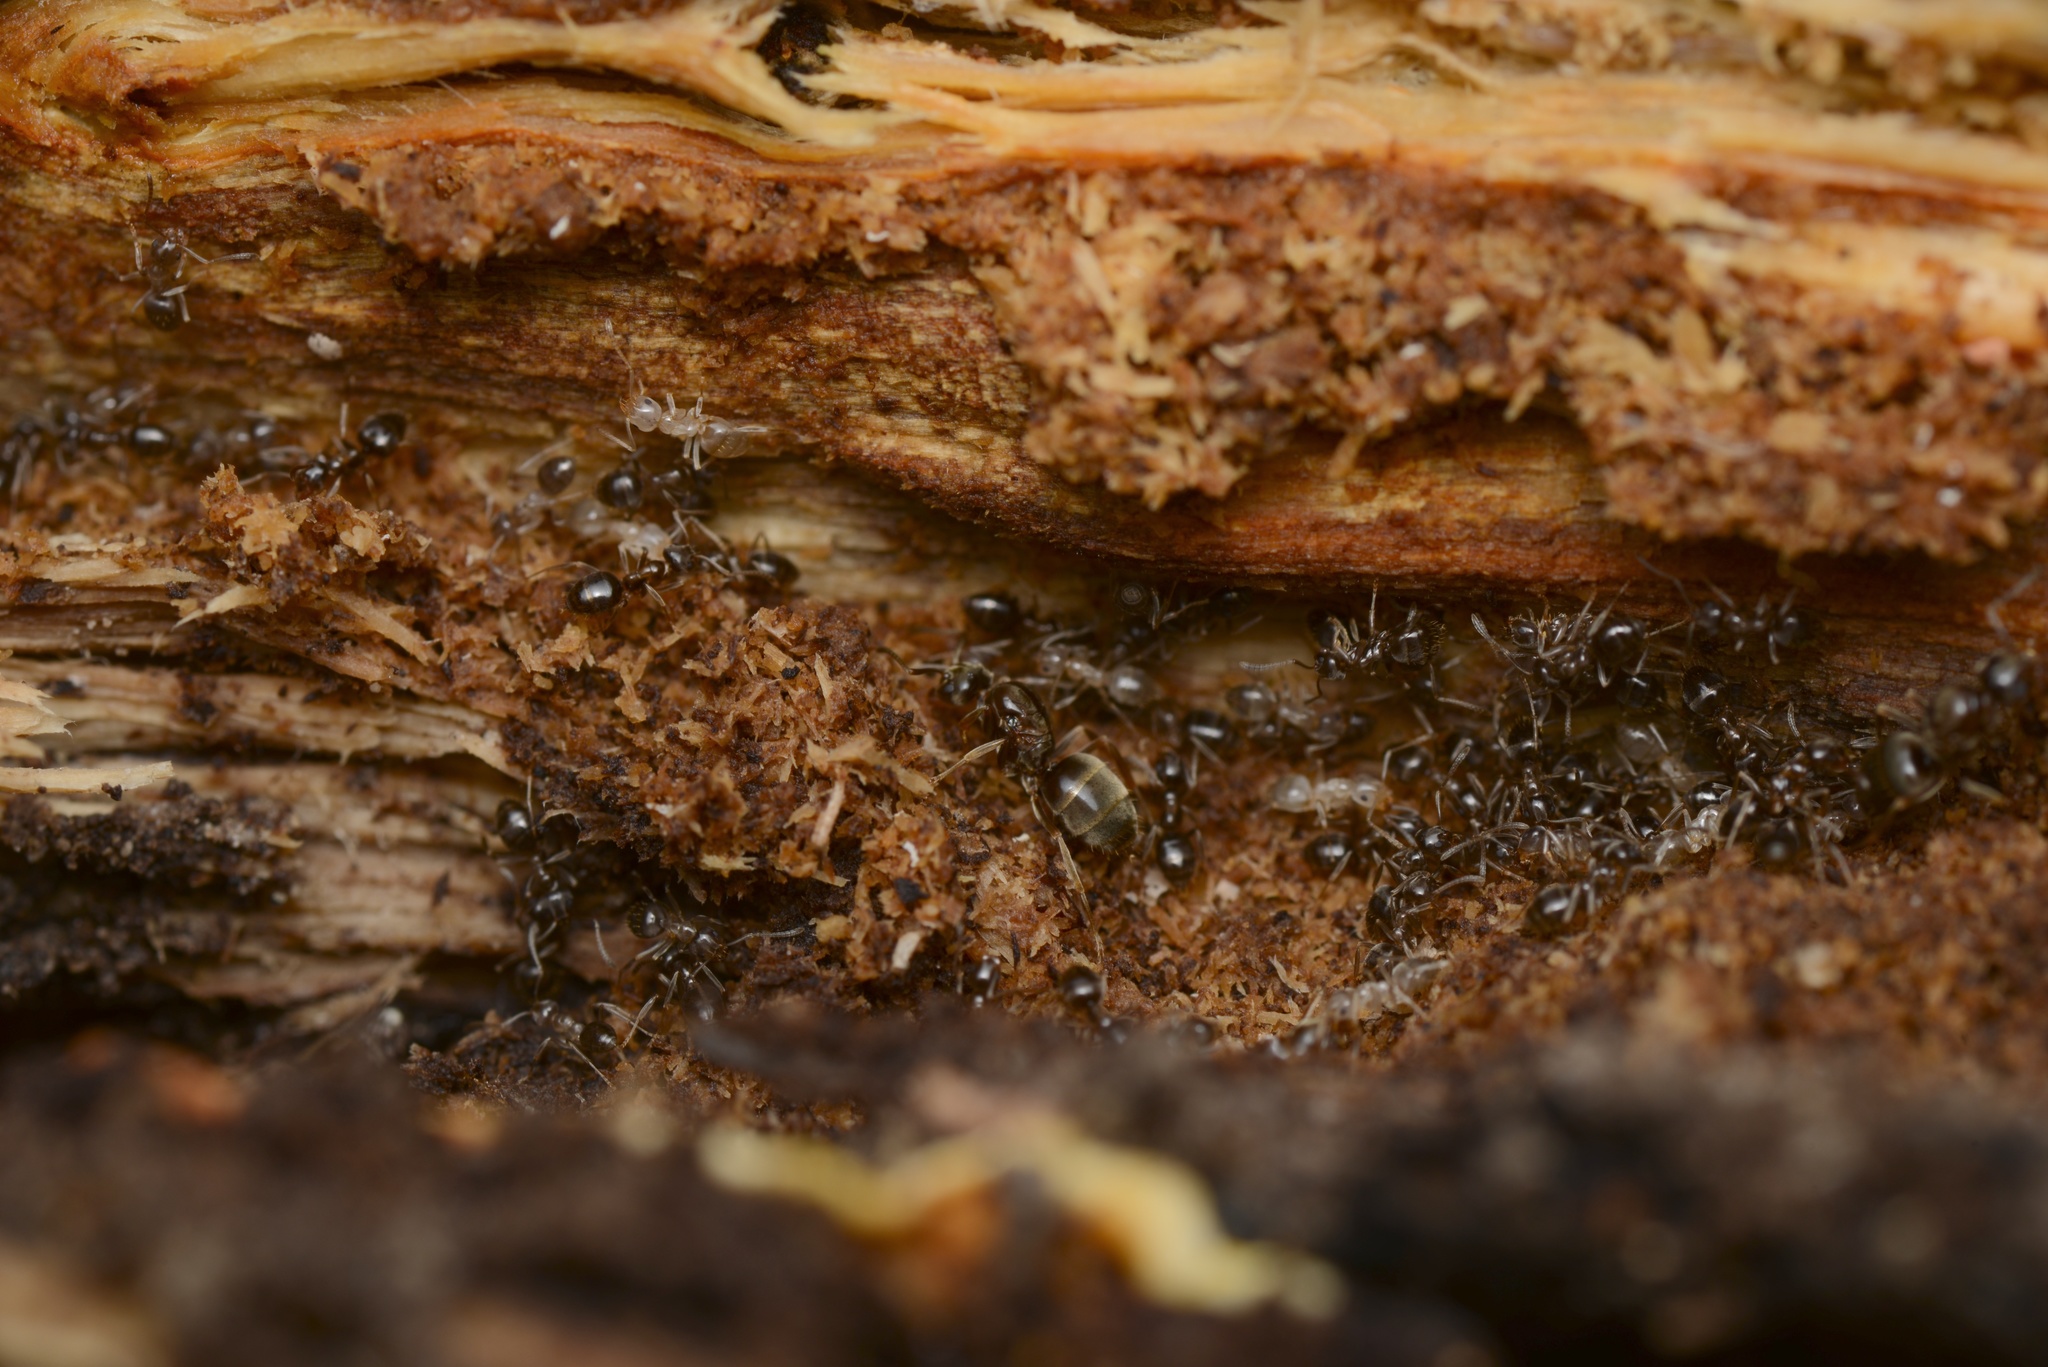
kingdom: Animalia
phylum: Arthropoda
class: Insecta
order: Hymenoptera
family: Formicidae
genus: Prolasius
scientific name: Prolasius advenus
